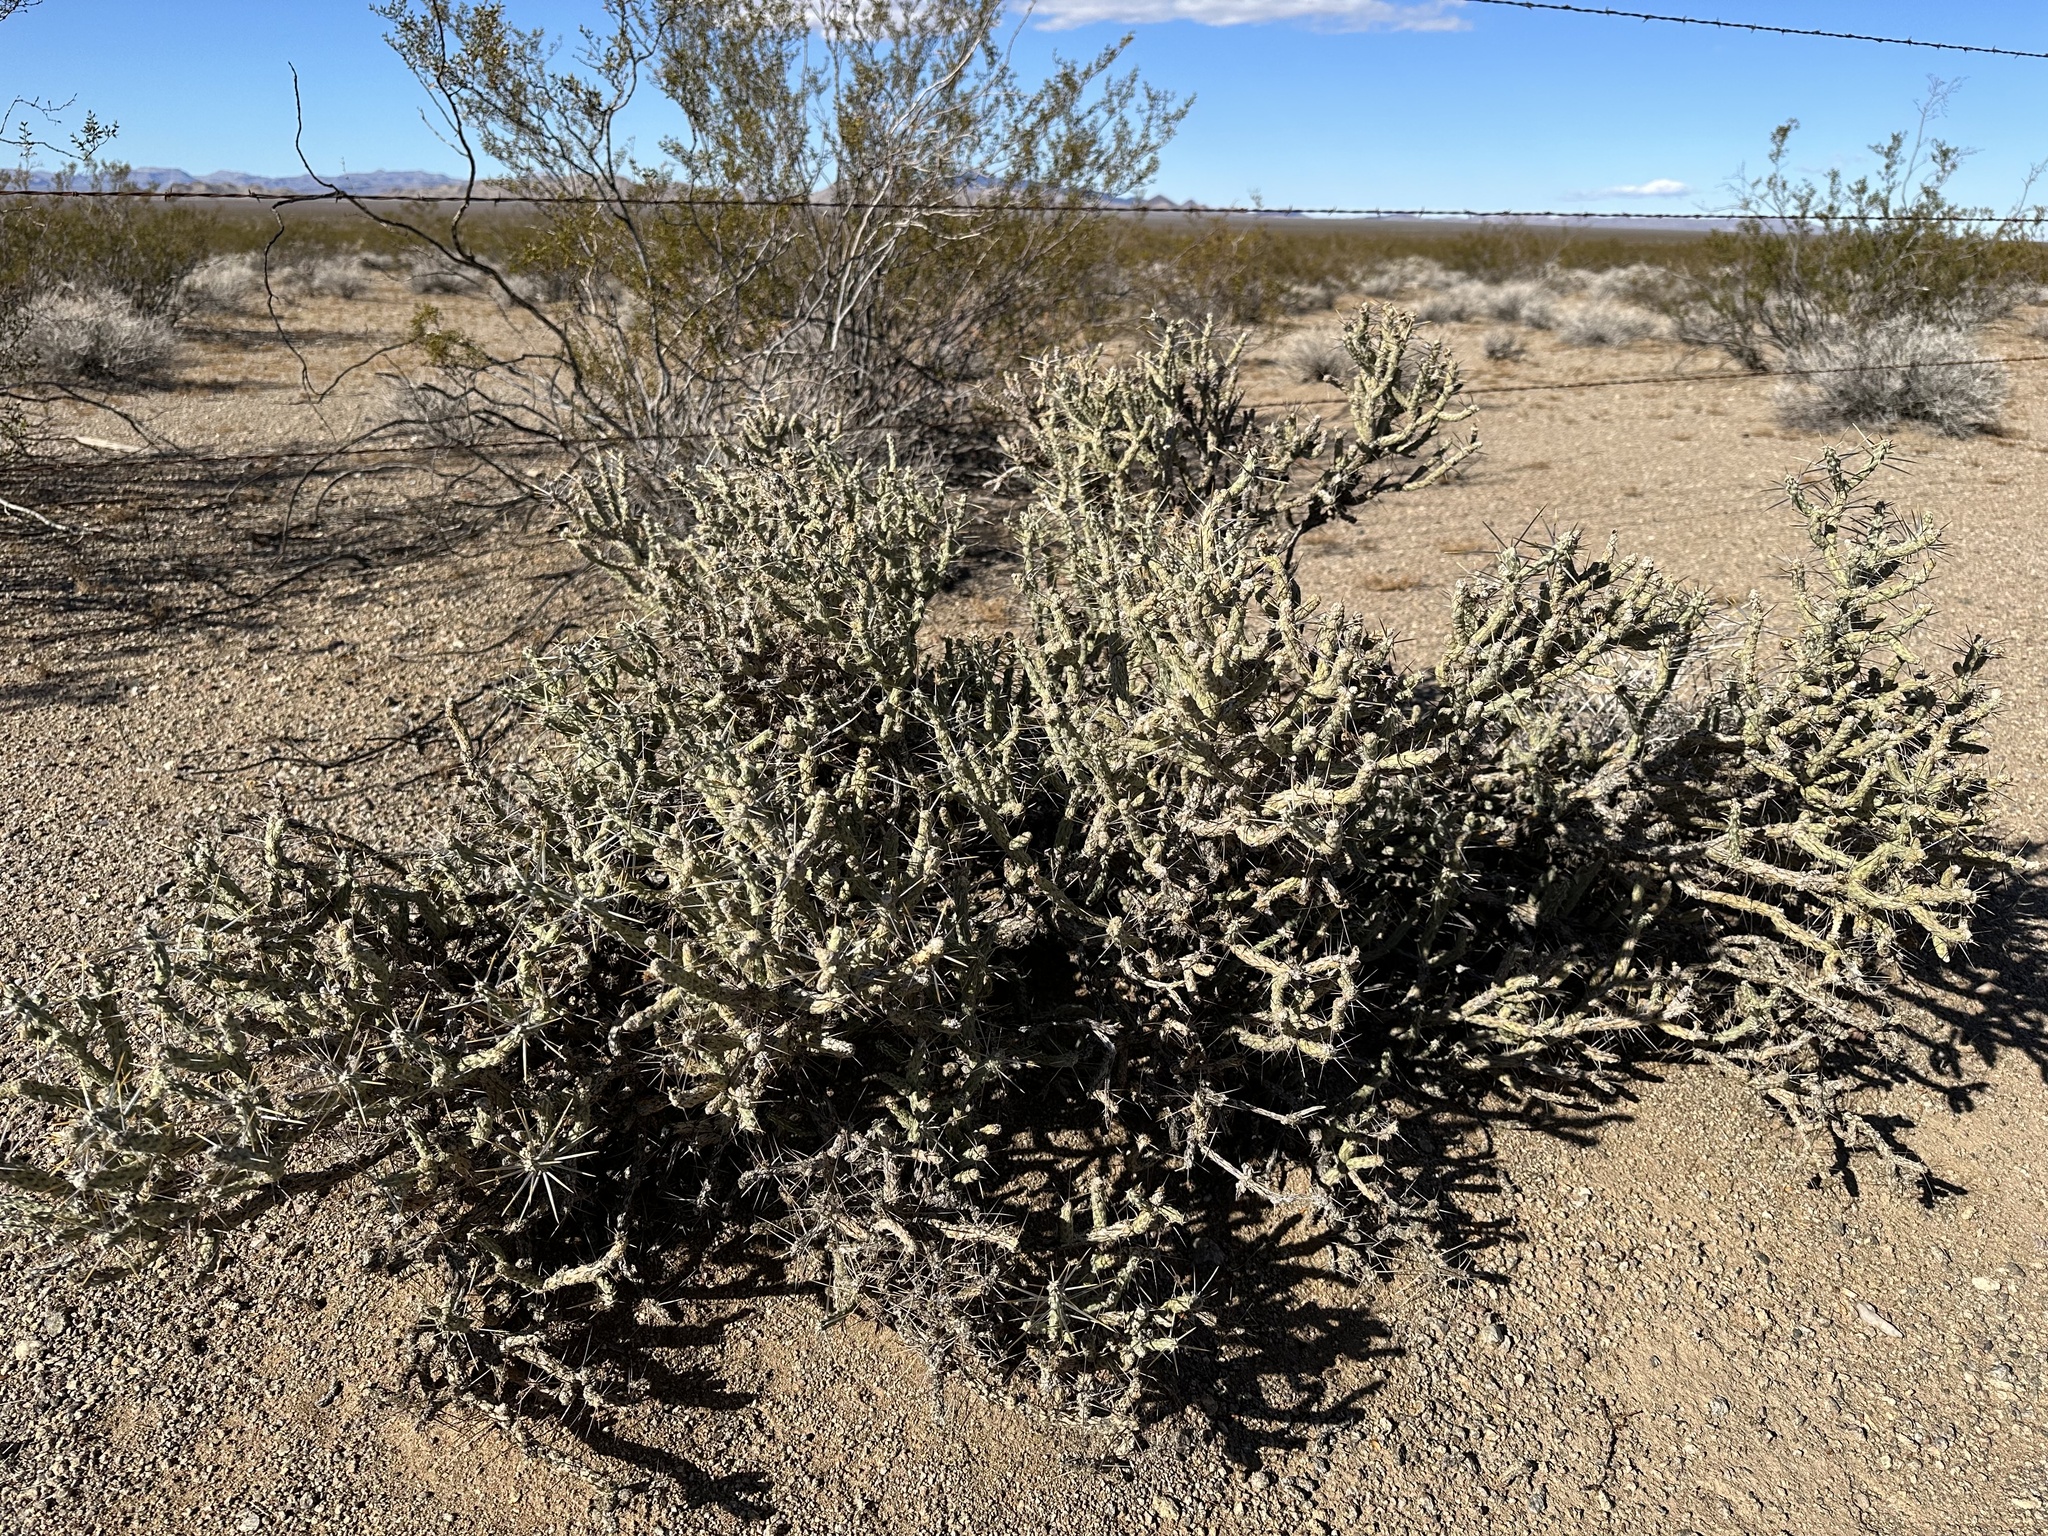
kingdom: Plantae
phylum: Tracheophyta
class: Magnoliopsida
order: Caryophyllales
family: Cactaceae
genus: Cylindropuntia
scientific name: Cylindropuntia ramosissima
